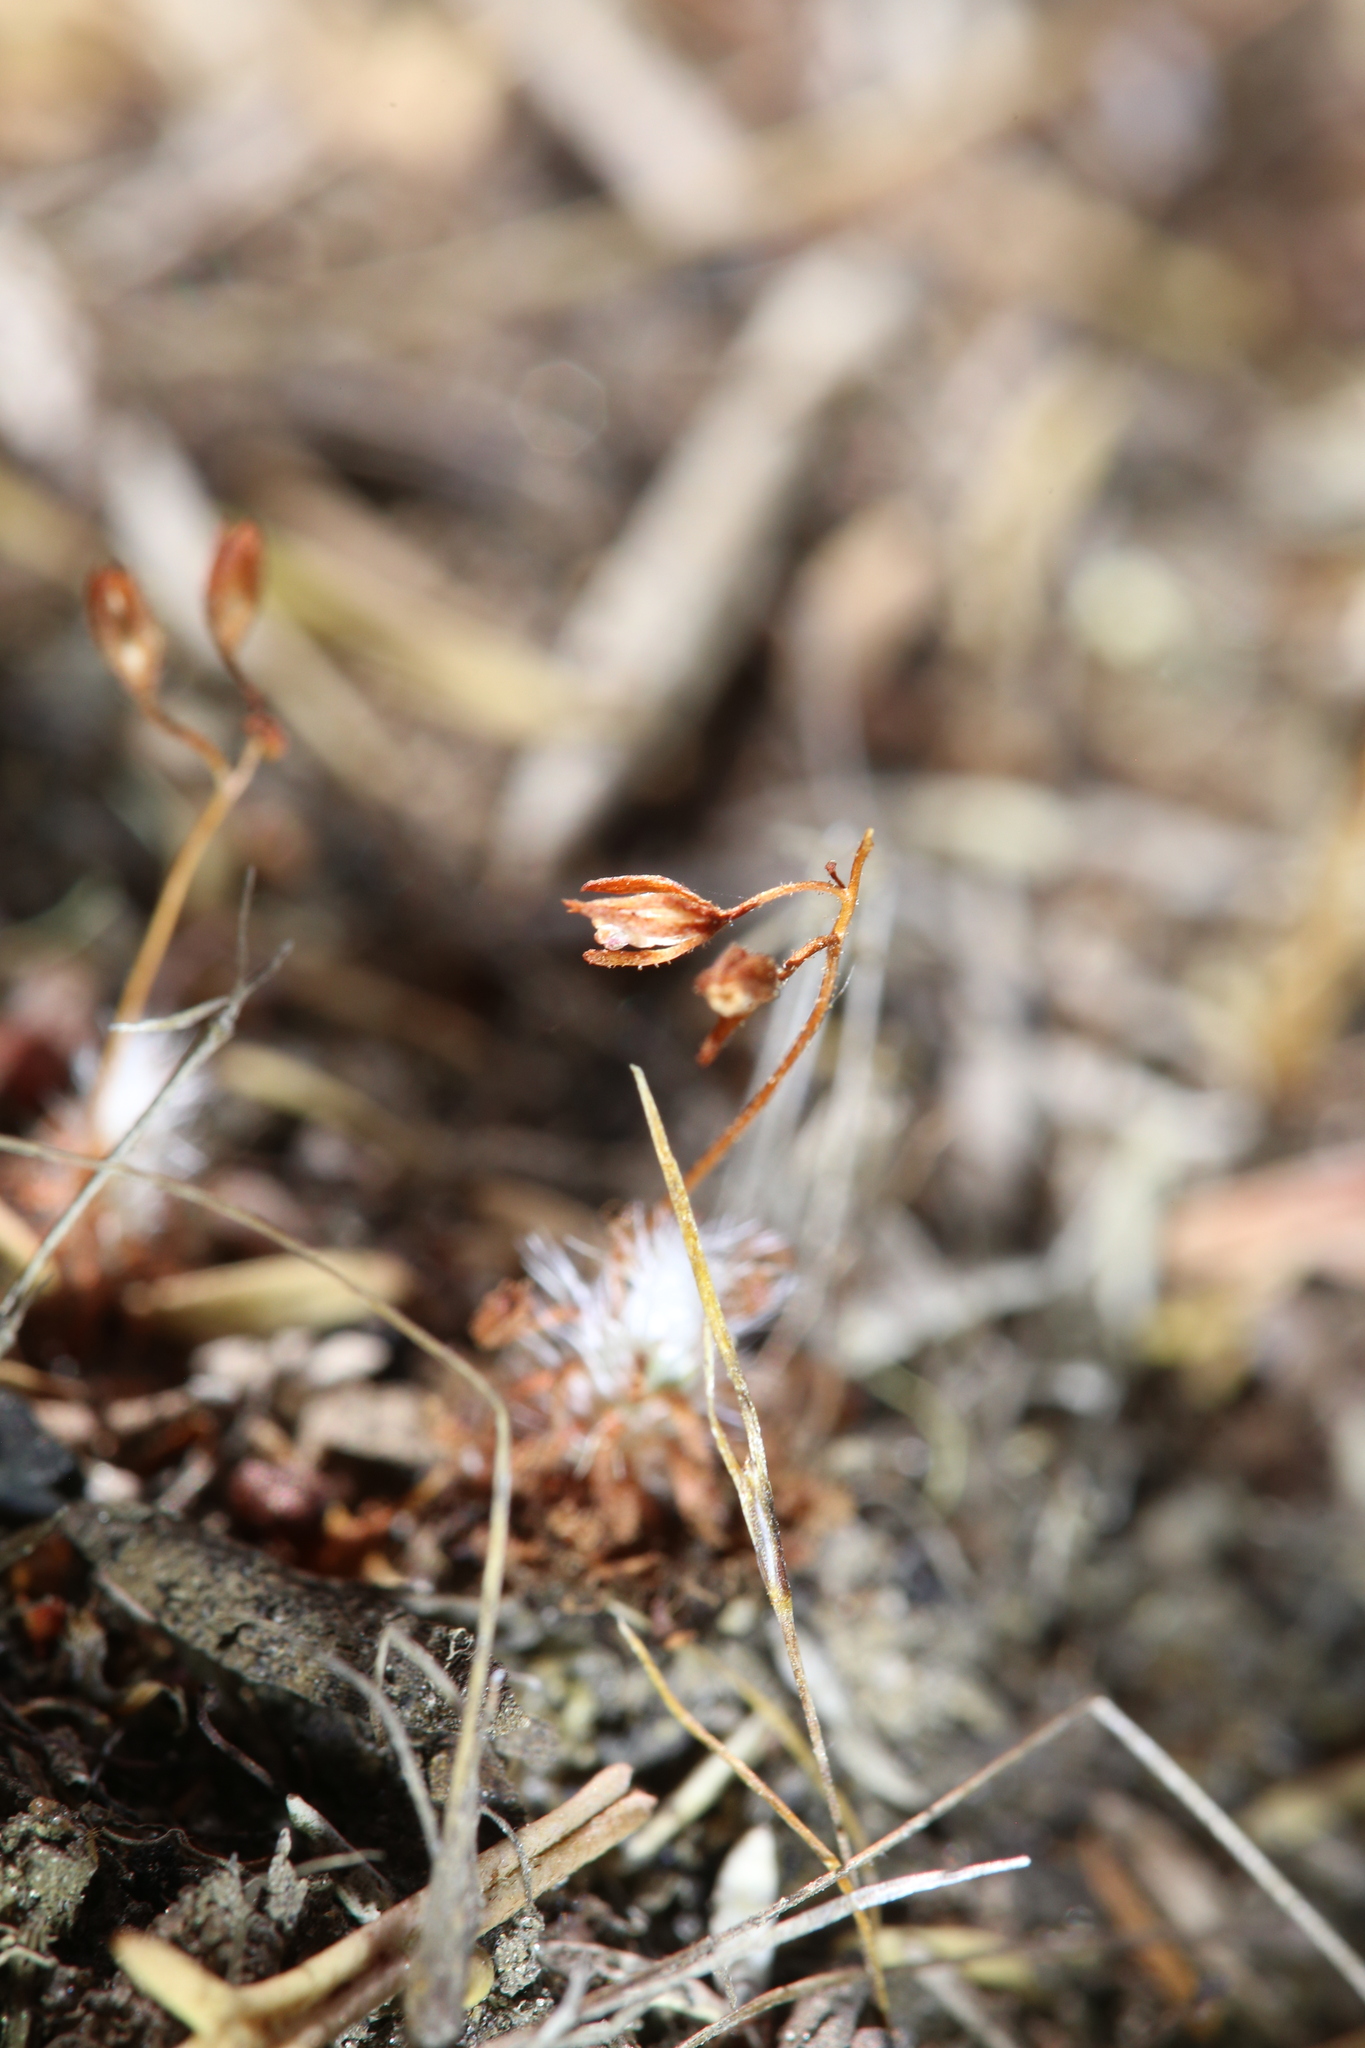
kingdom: Plantae
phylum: Tracheophyta
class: Magnoliopsida
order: Caryophyllales
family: Droseraceae
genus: Drosera
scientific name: Drosera nitidula
